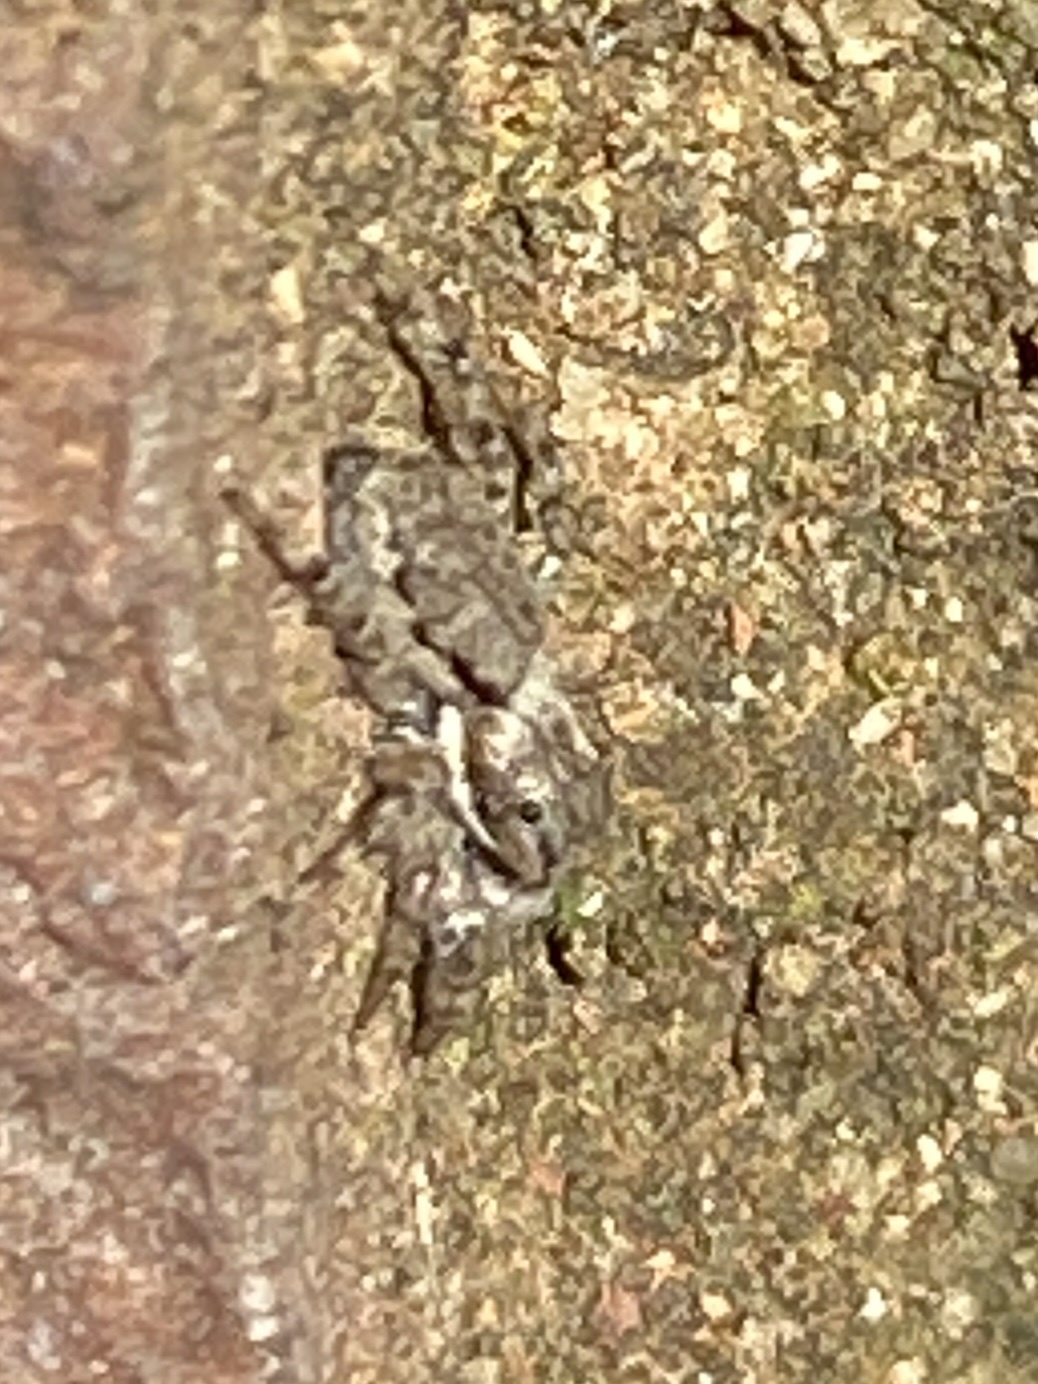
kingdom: Animalia
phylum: Arthropoda
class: Arachnida
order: Araneae
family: Salticidae
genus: Menemerus
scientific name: Menemerus bivittatus
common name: Gray wall jumper
